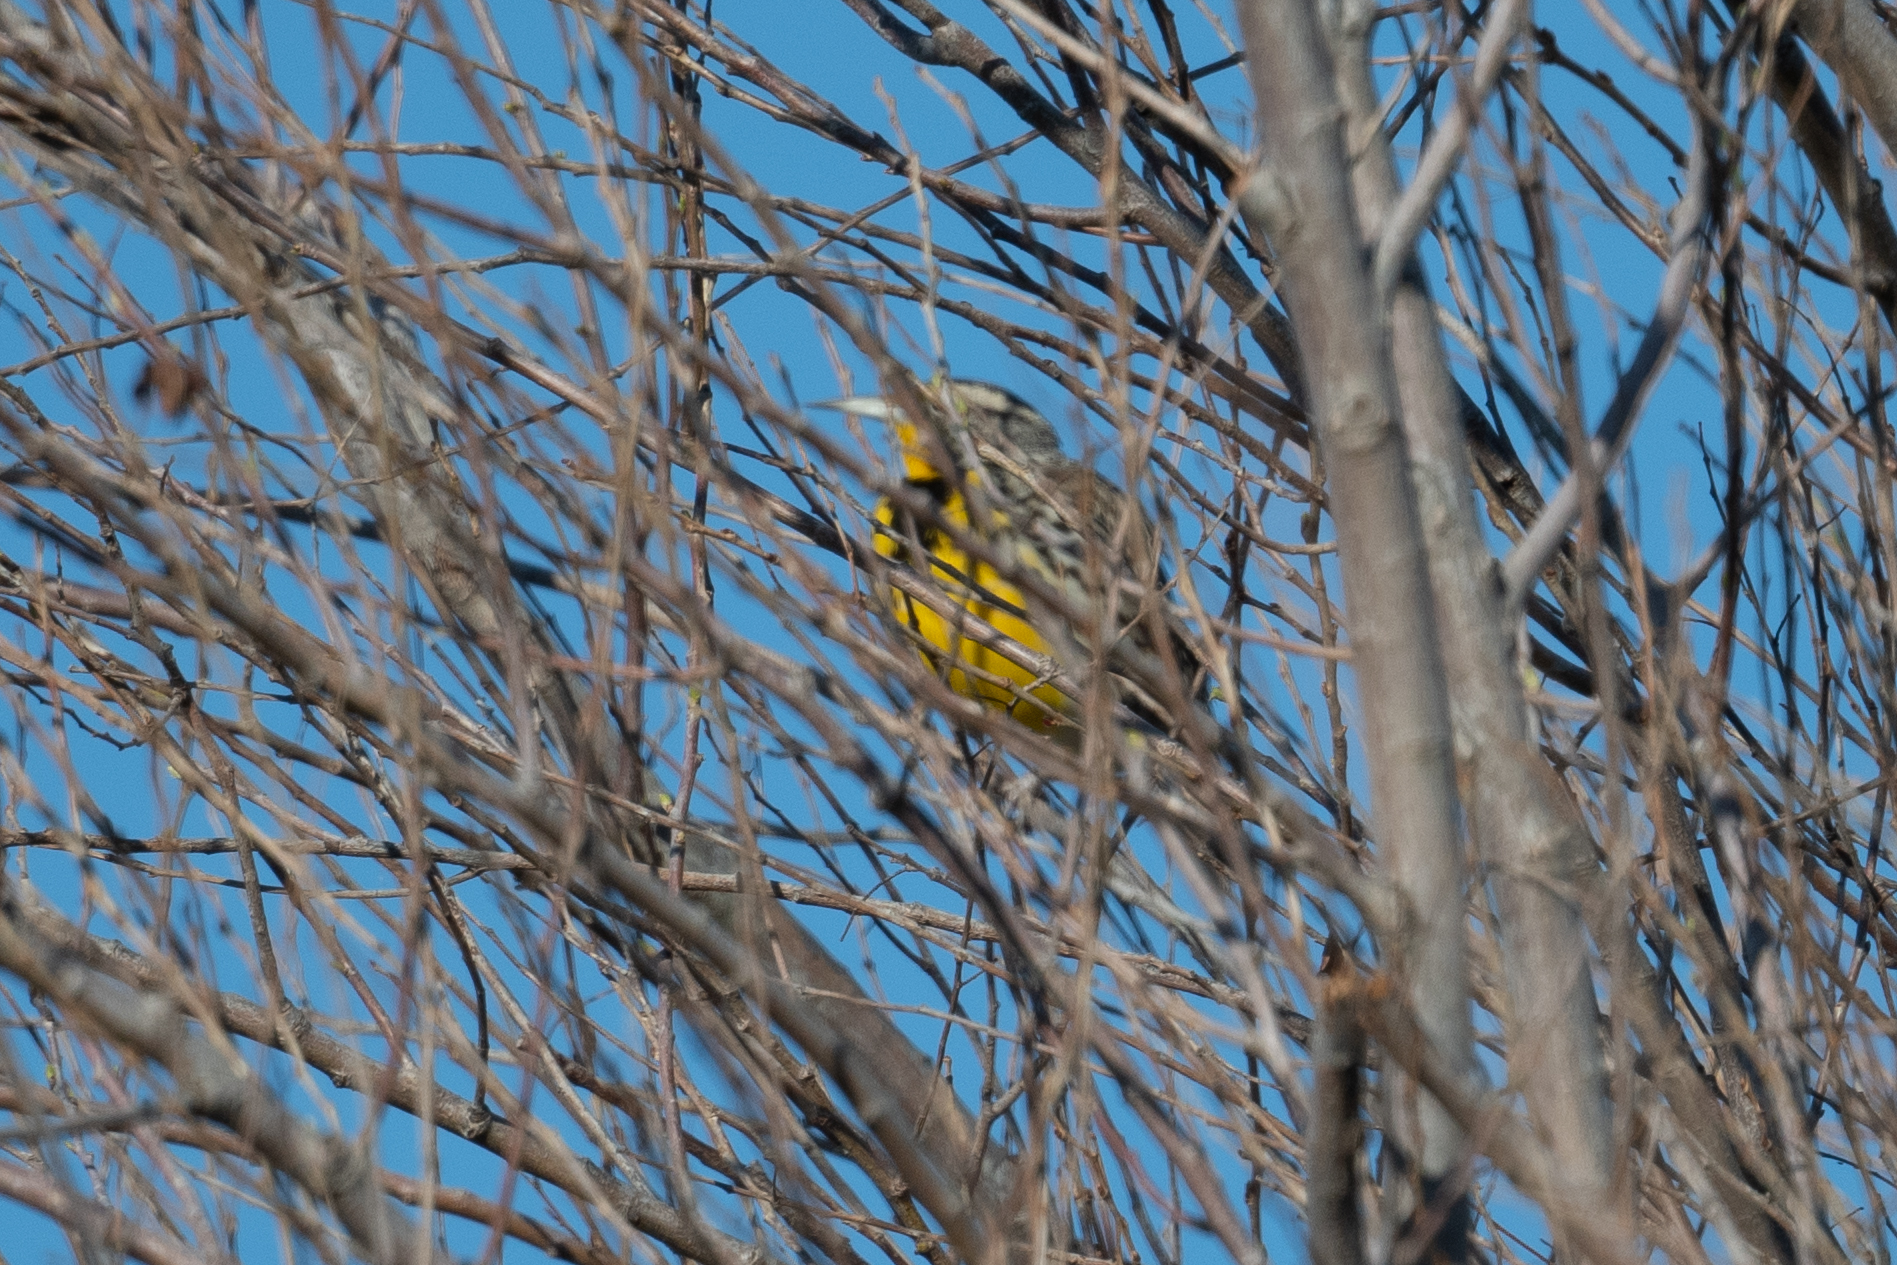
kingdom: Animalia
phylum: Chordata
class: Aves
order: Passeriformes
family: Icteridae
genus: Sturnella
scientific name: Sturnella neglecta
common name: Western meadowlark
